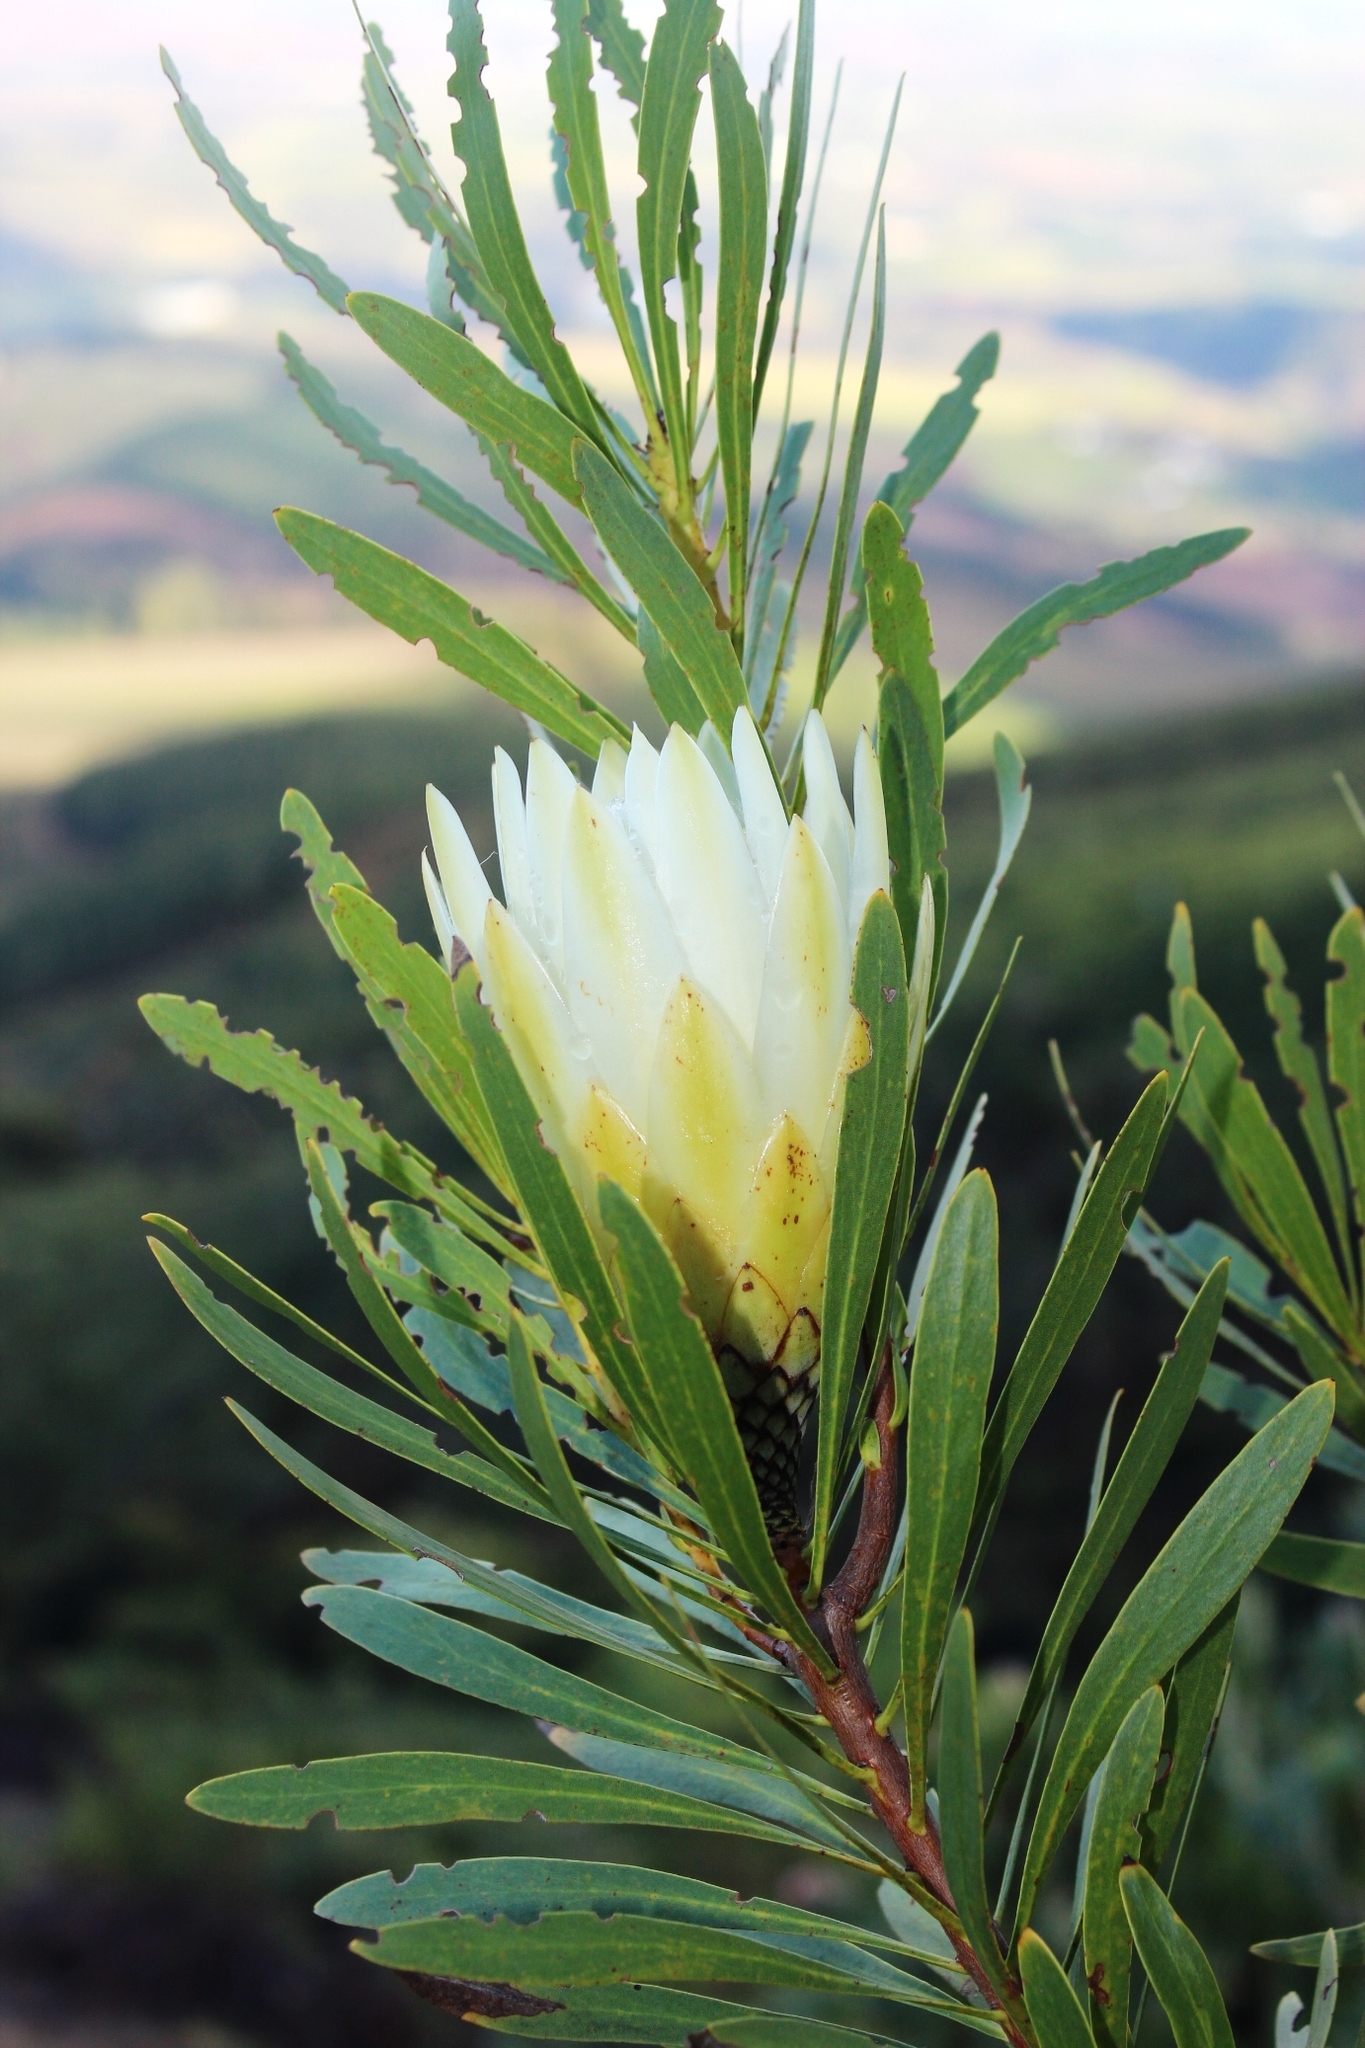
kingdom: Plantae
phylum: Tracheophyta
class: Magnoliopsida
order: Proteales
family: Proteaceae
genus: Protea
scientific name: Protea repens
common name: Sugarbush
